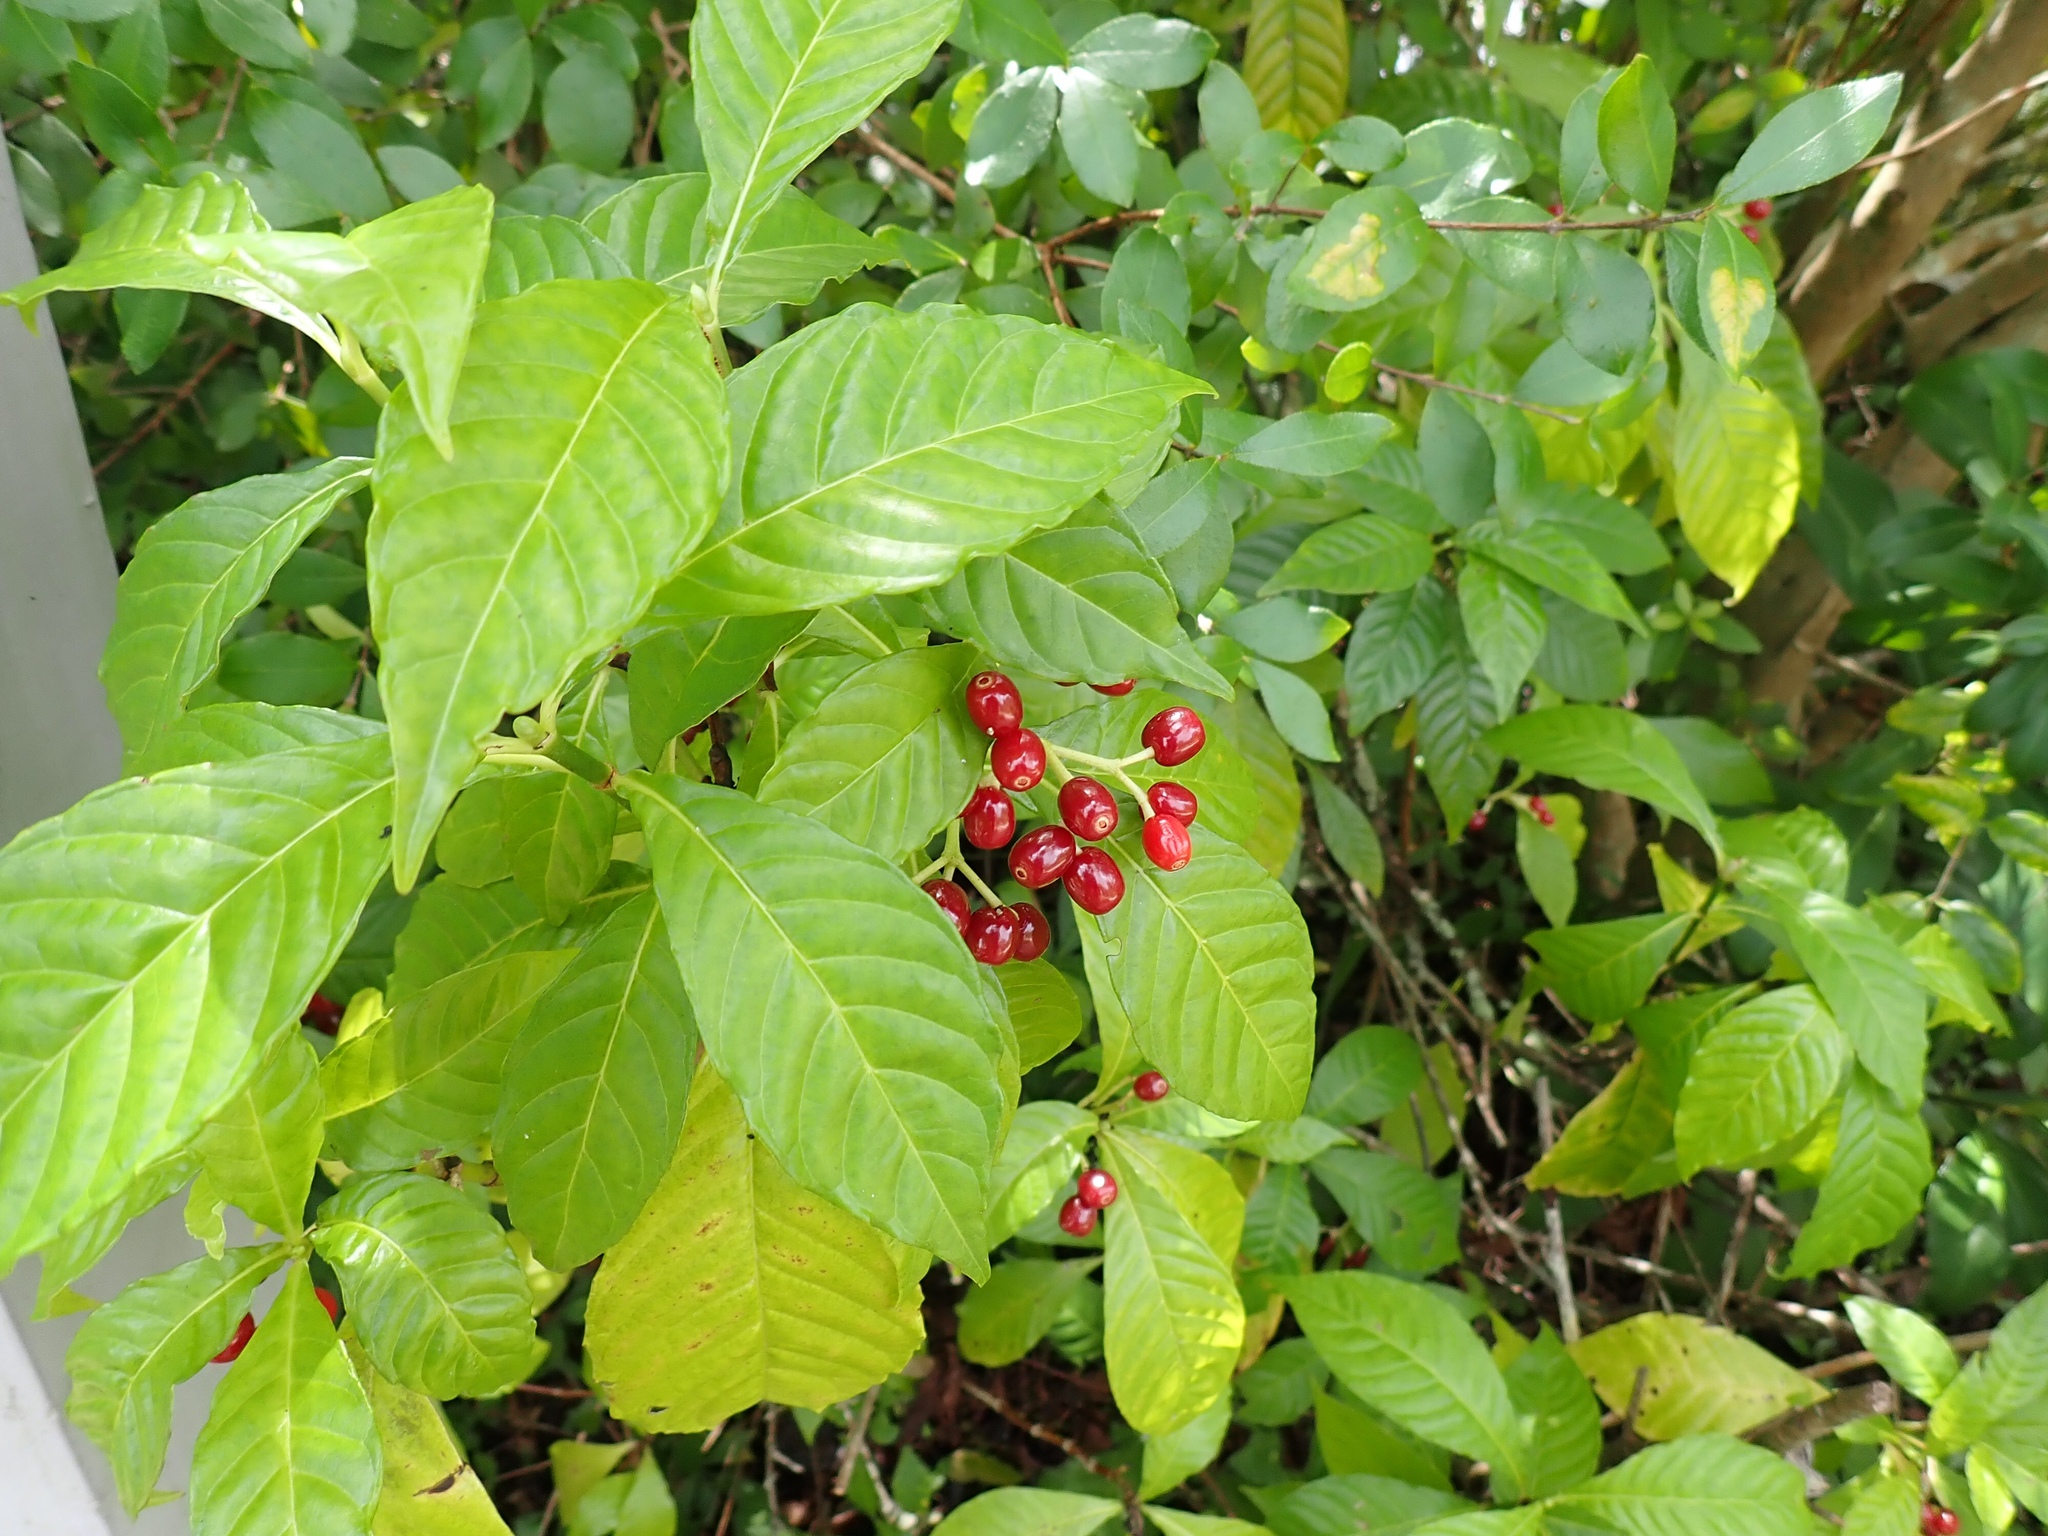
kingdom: Plantae
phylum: Tracheophyta
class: Magnoliopsida
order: Gentianales
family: Rubiaceae
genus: Psychotria
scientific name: Psychotria nervosa
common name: Bastard cankerberry
